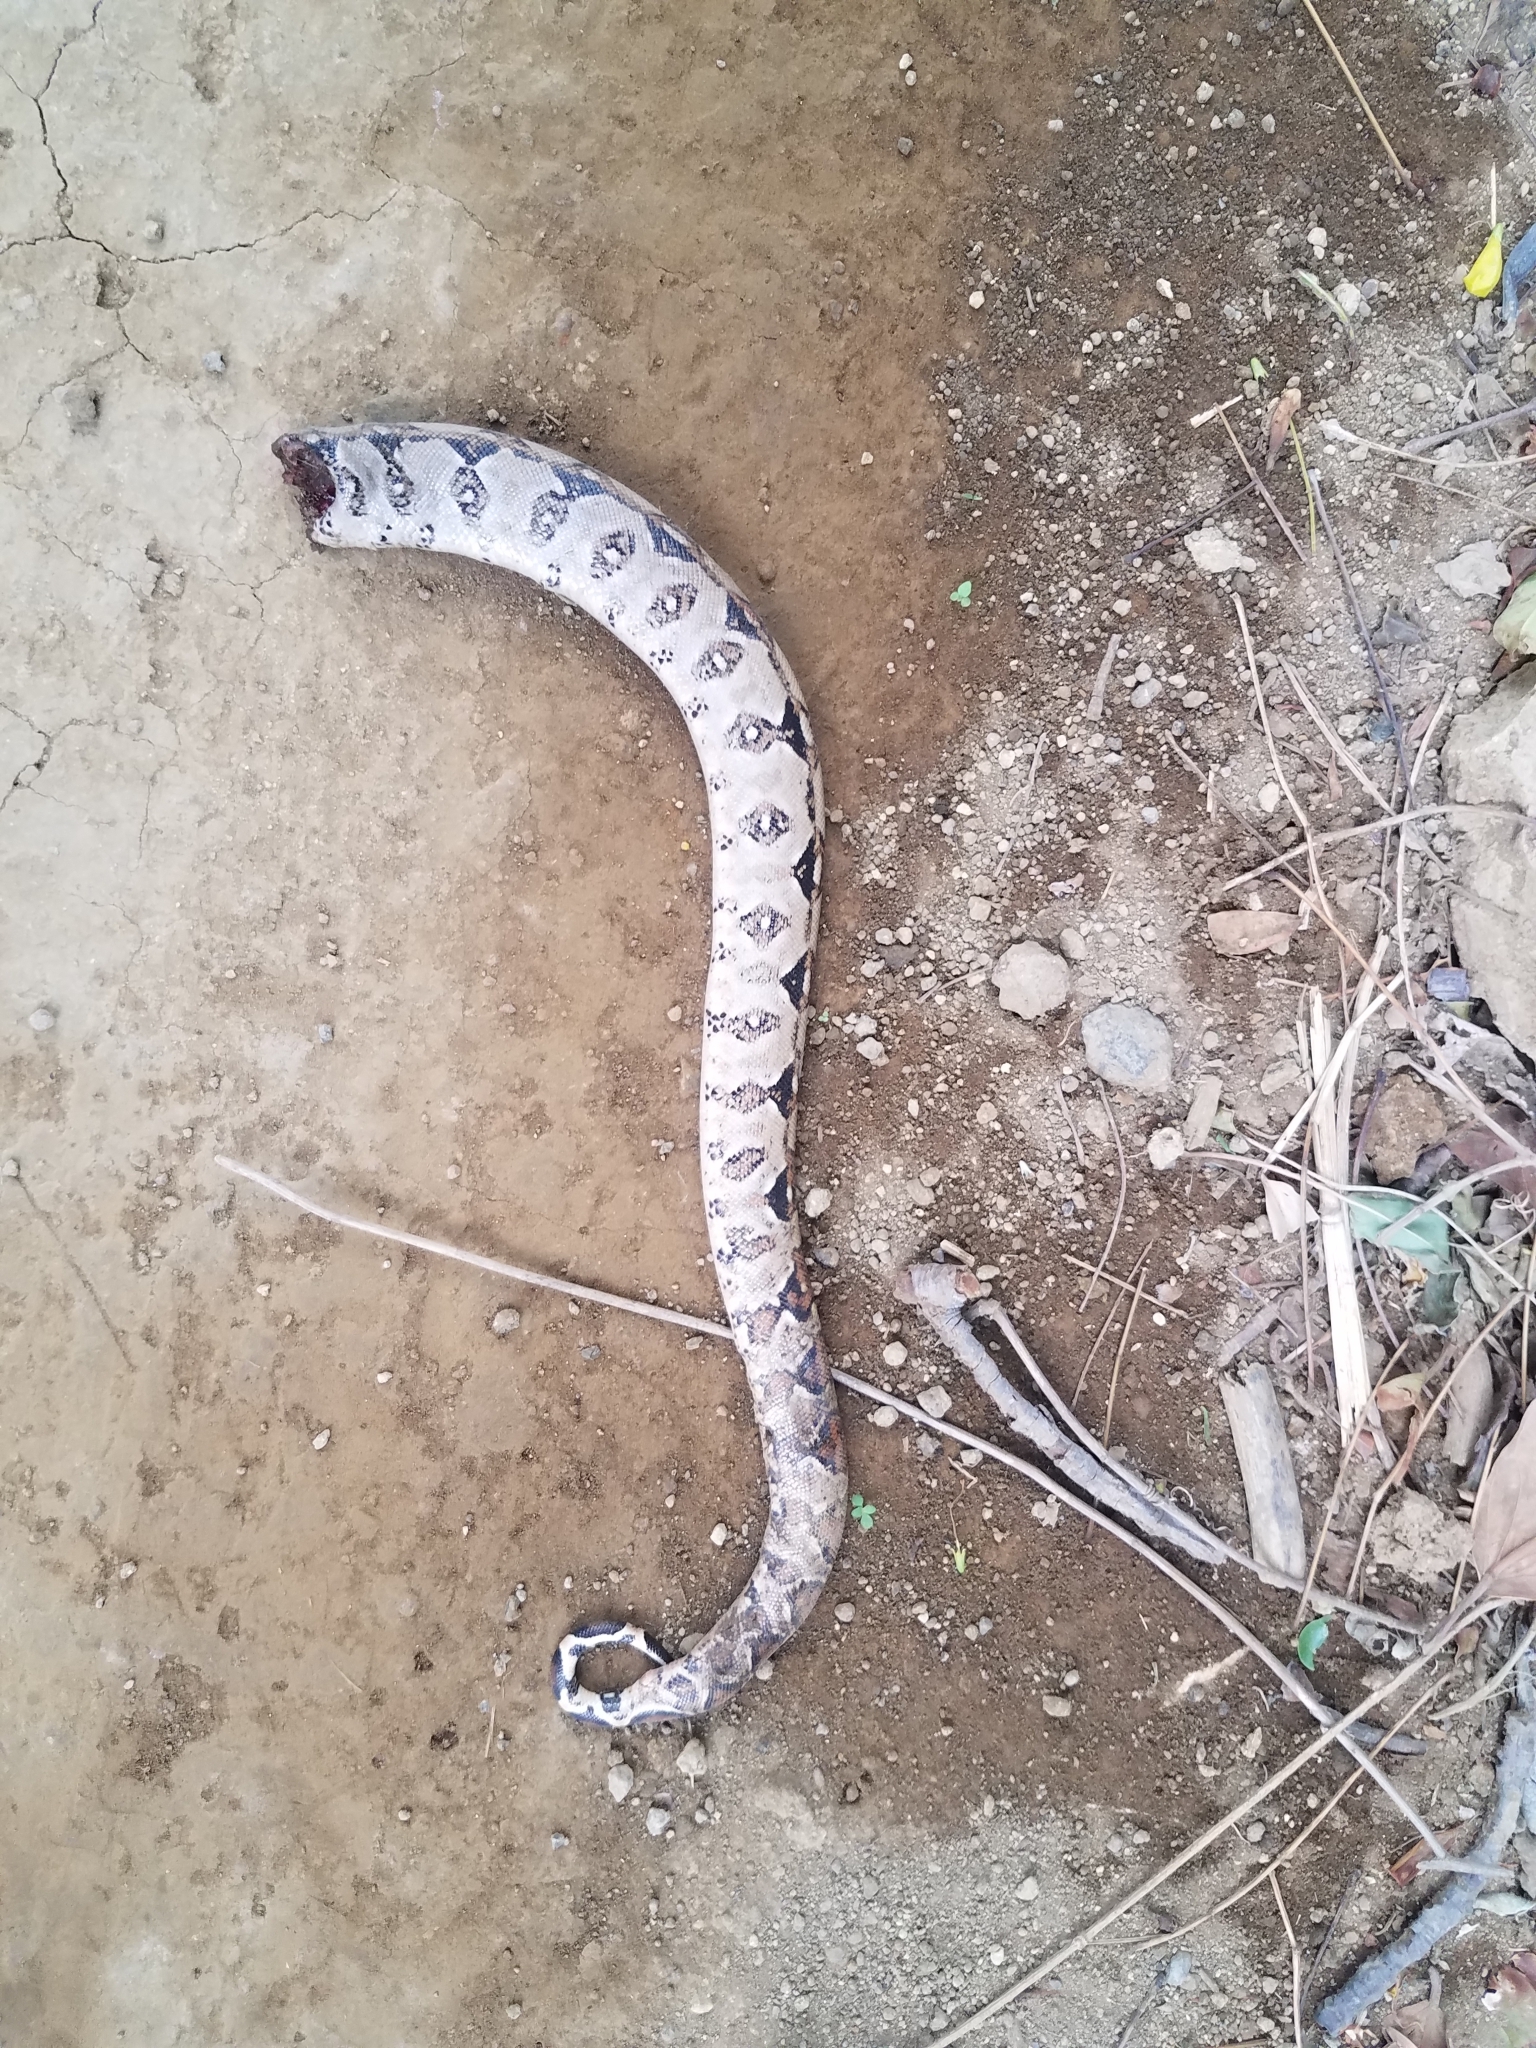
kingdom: Animalia
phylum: Chordata
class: Squamata
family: Boidae
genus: Boa
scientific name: Boa imperator
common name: Central american boa
